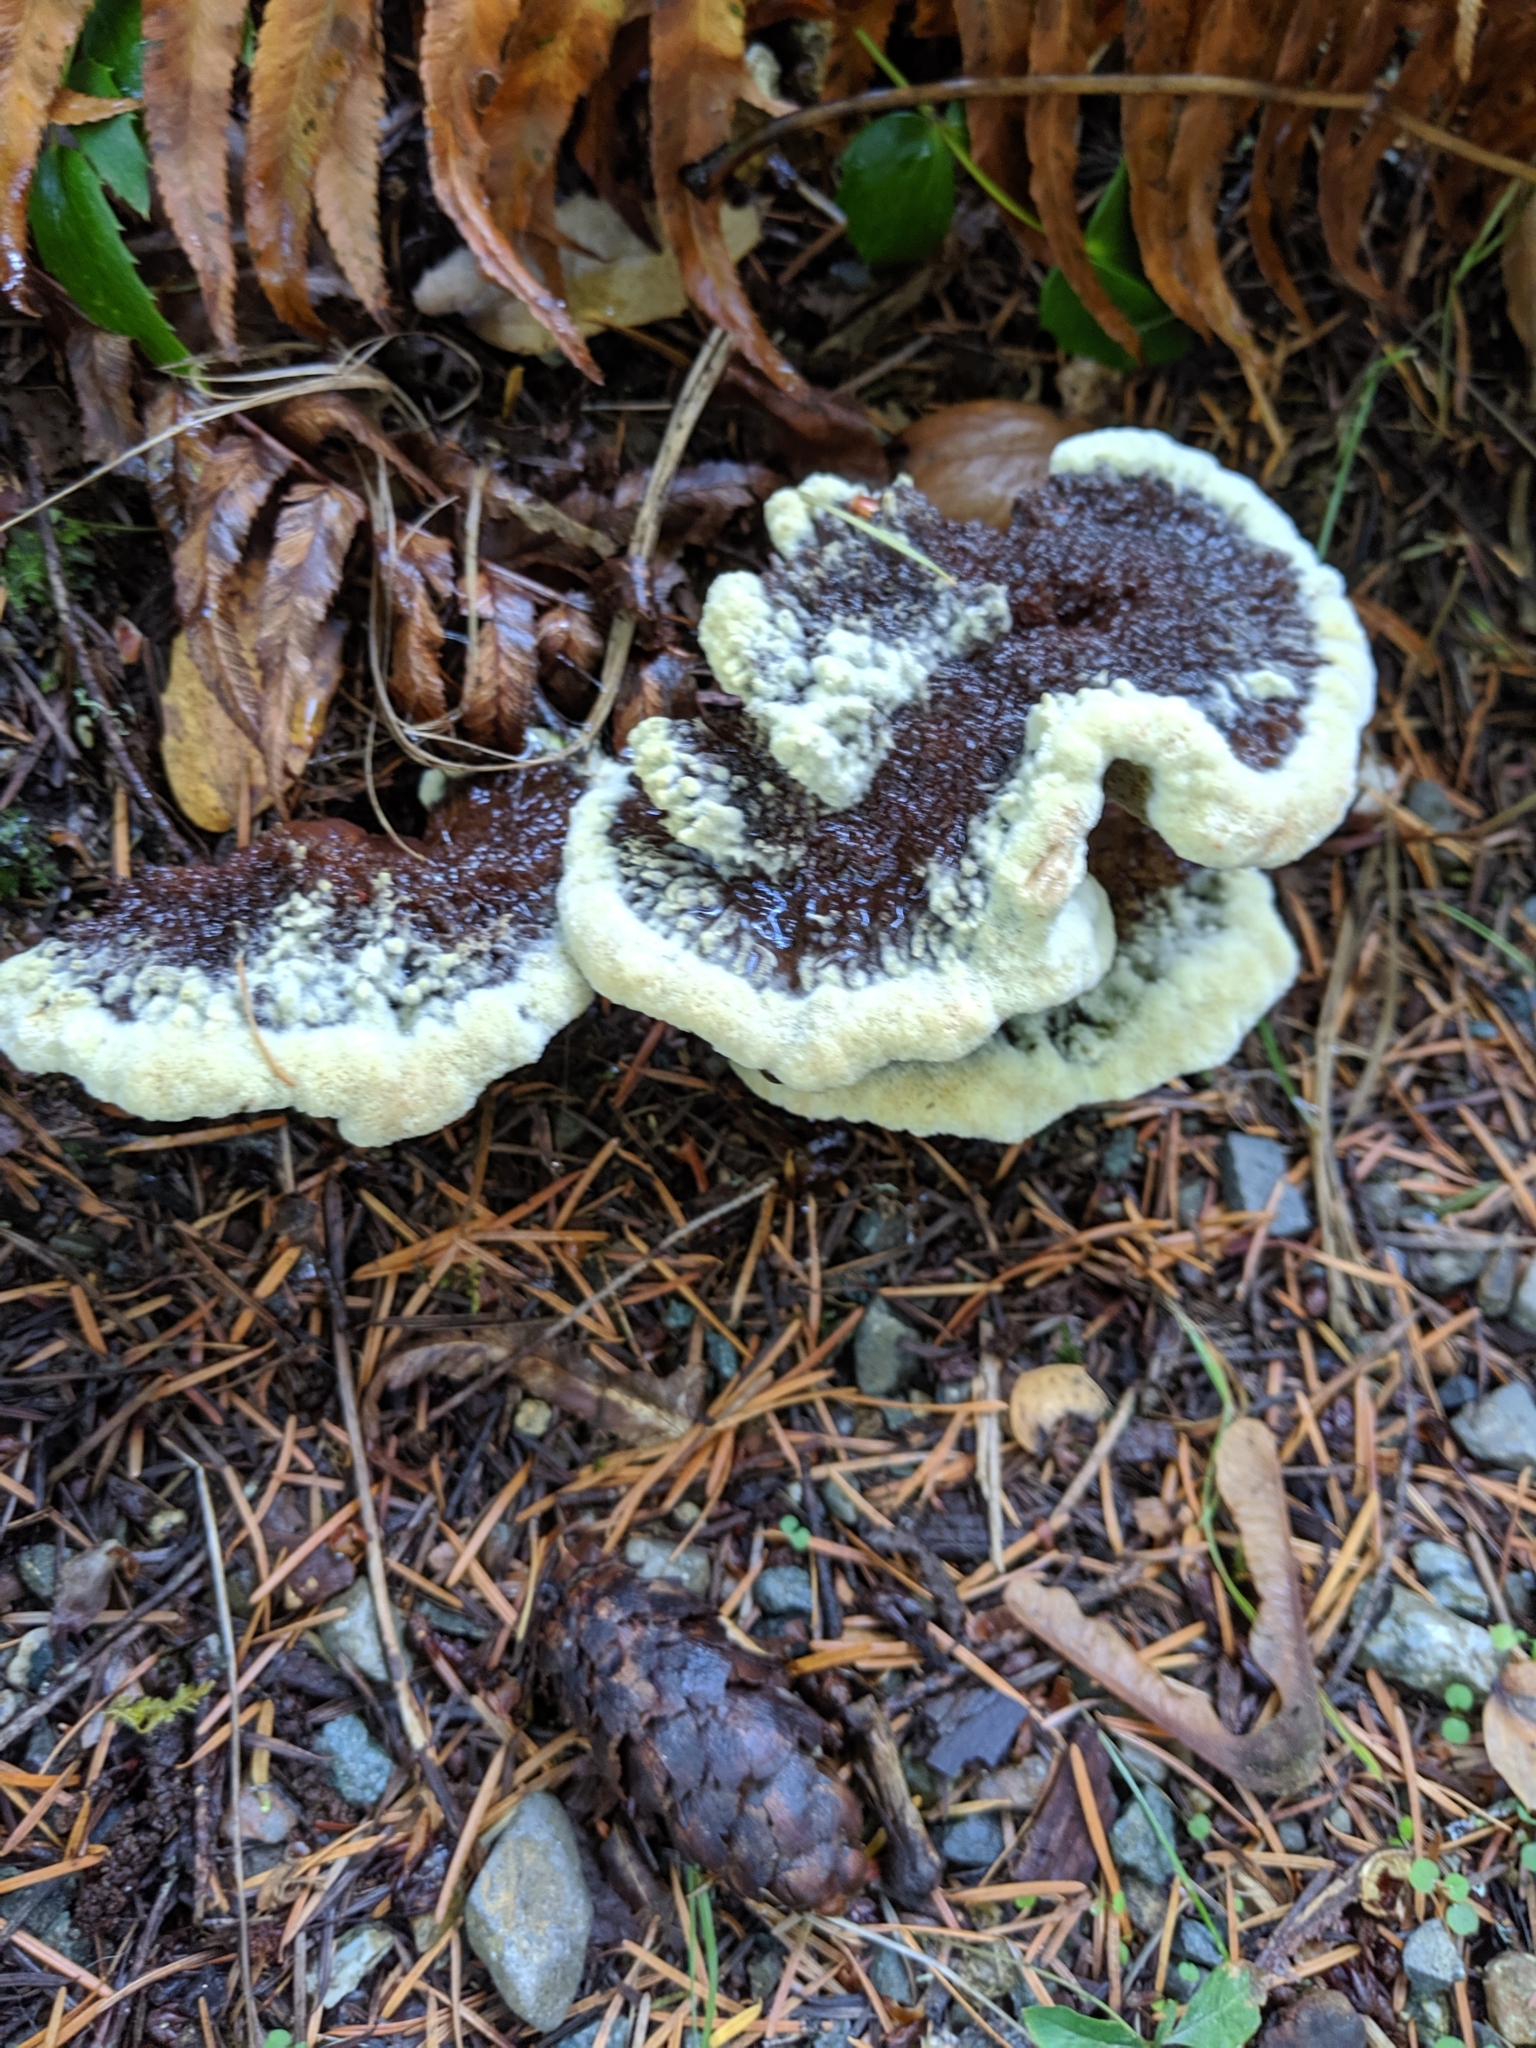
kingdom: Fungi
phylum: Basidiomycota
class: Agaricomycetes
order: Polyporales
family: Laetiporaceae
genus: Phaeolus
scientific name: Phaeolus schweinitzii
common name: Dyer's mazegill
